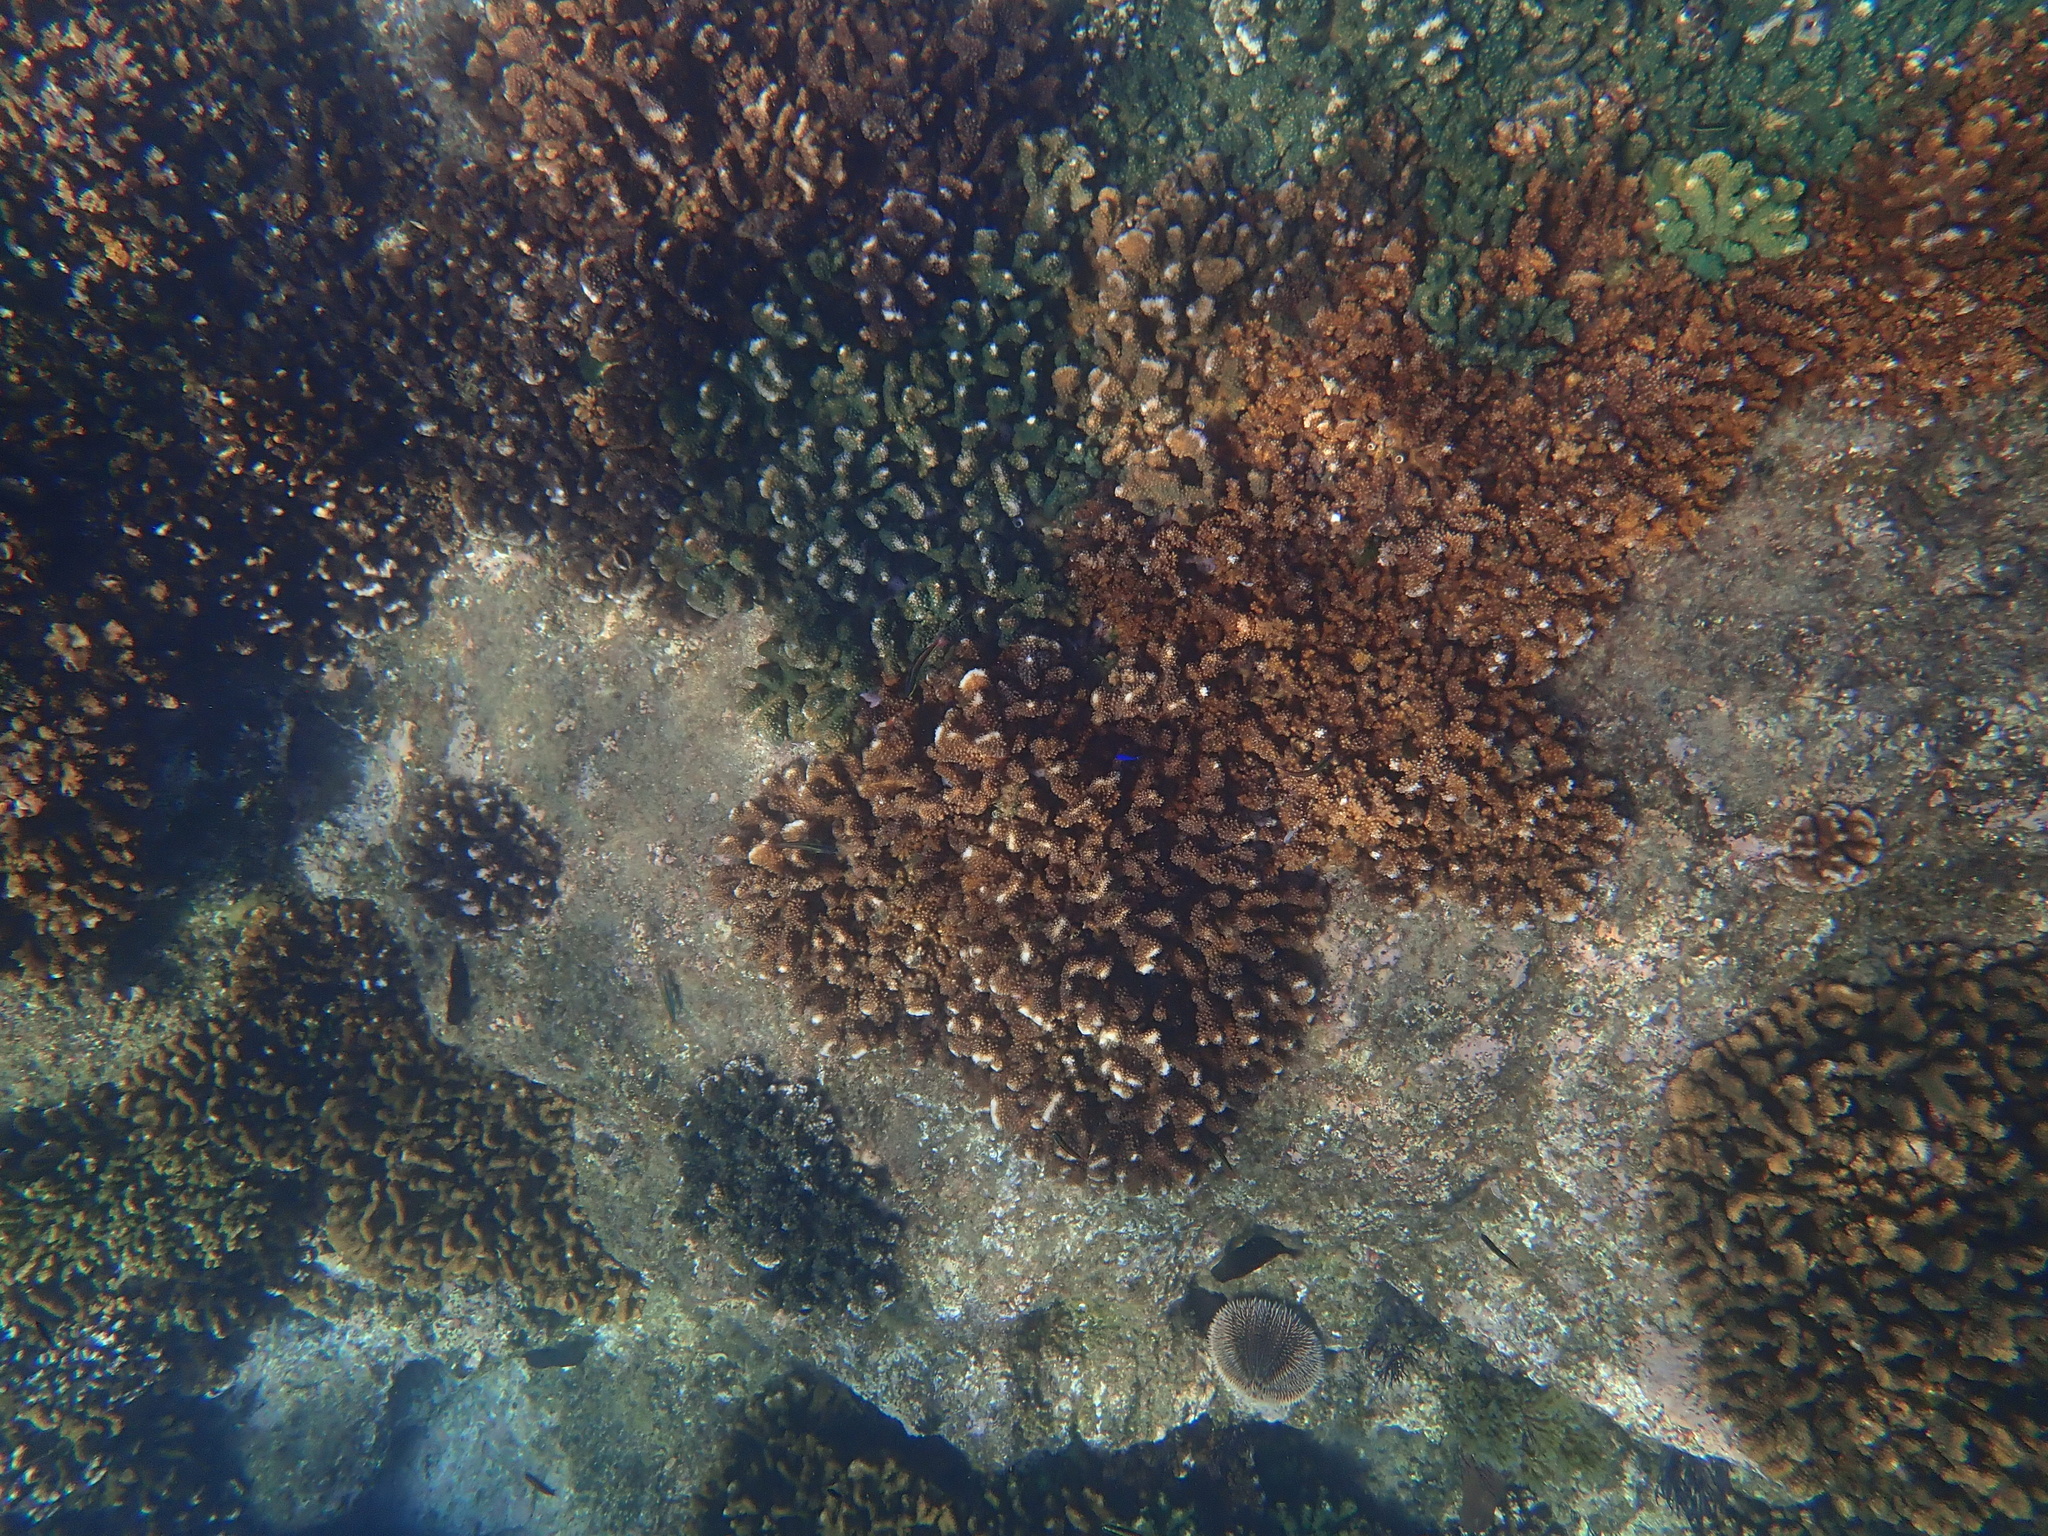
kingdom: Animalia
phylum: Echinodermata
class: Echinoidea
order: Camarodonta
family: Toxopneustidae
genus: Tripneustes
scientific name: Tripneustes depressus
